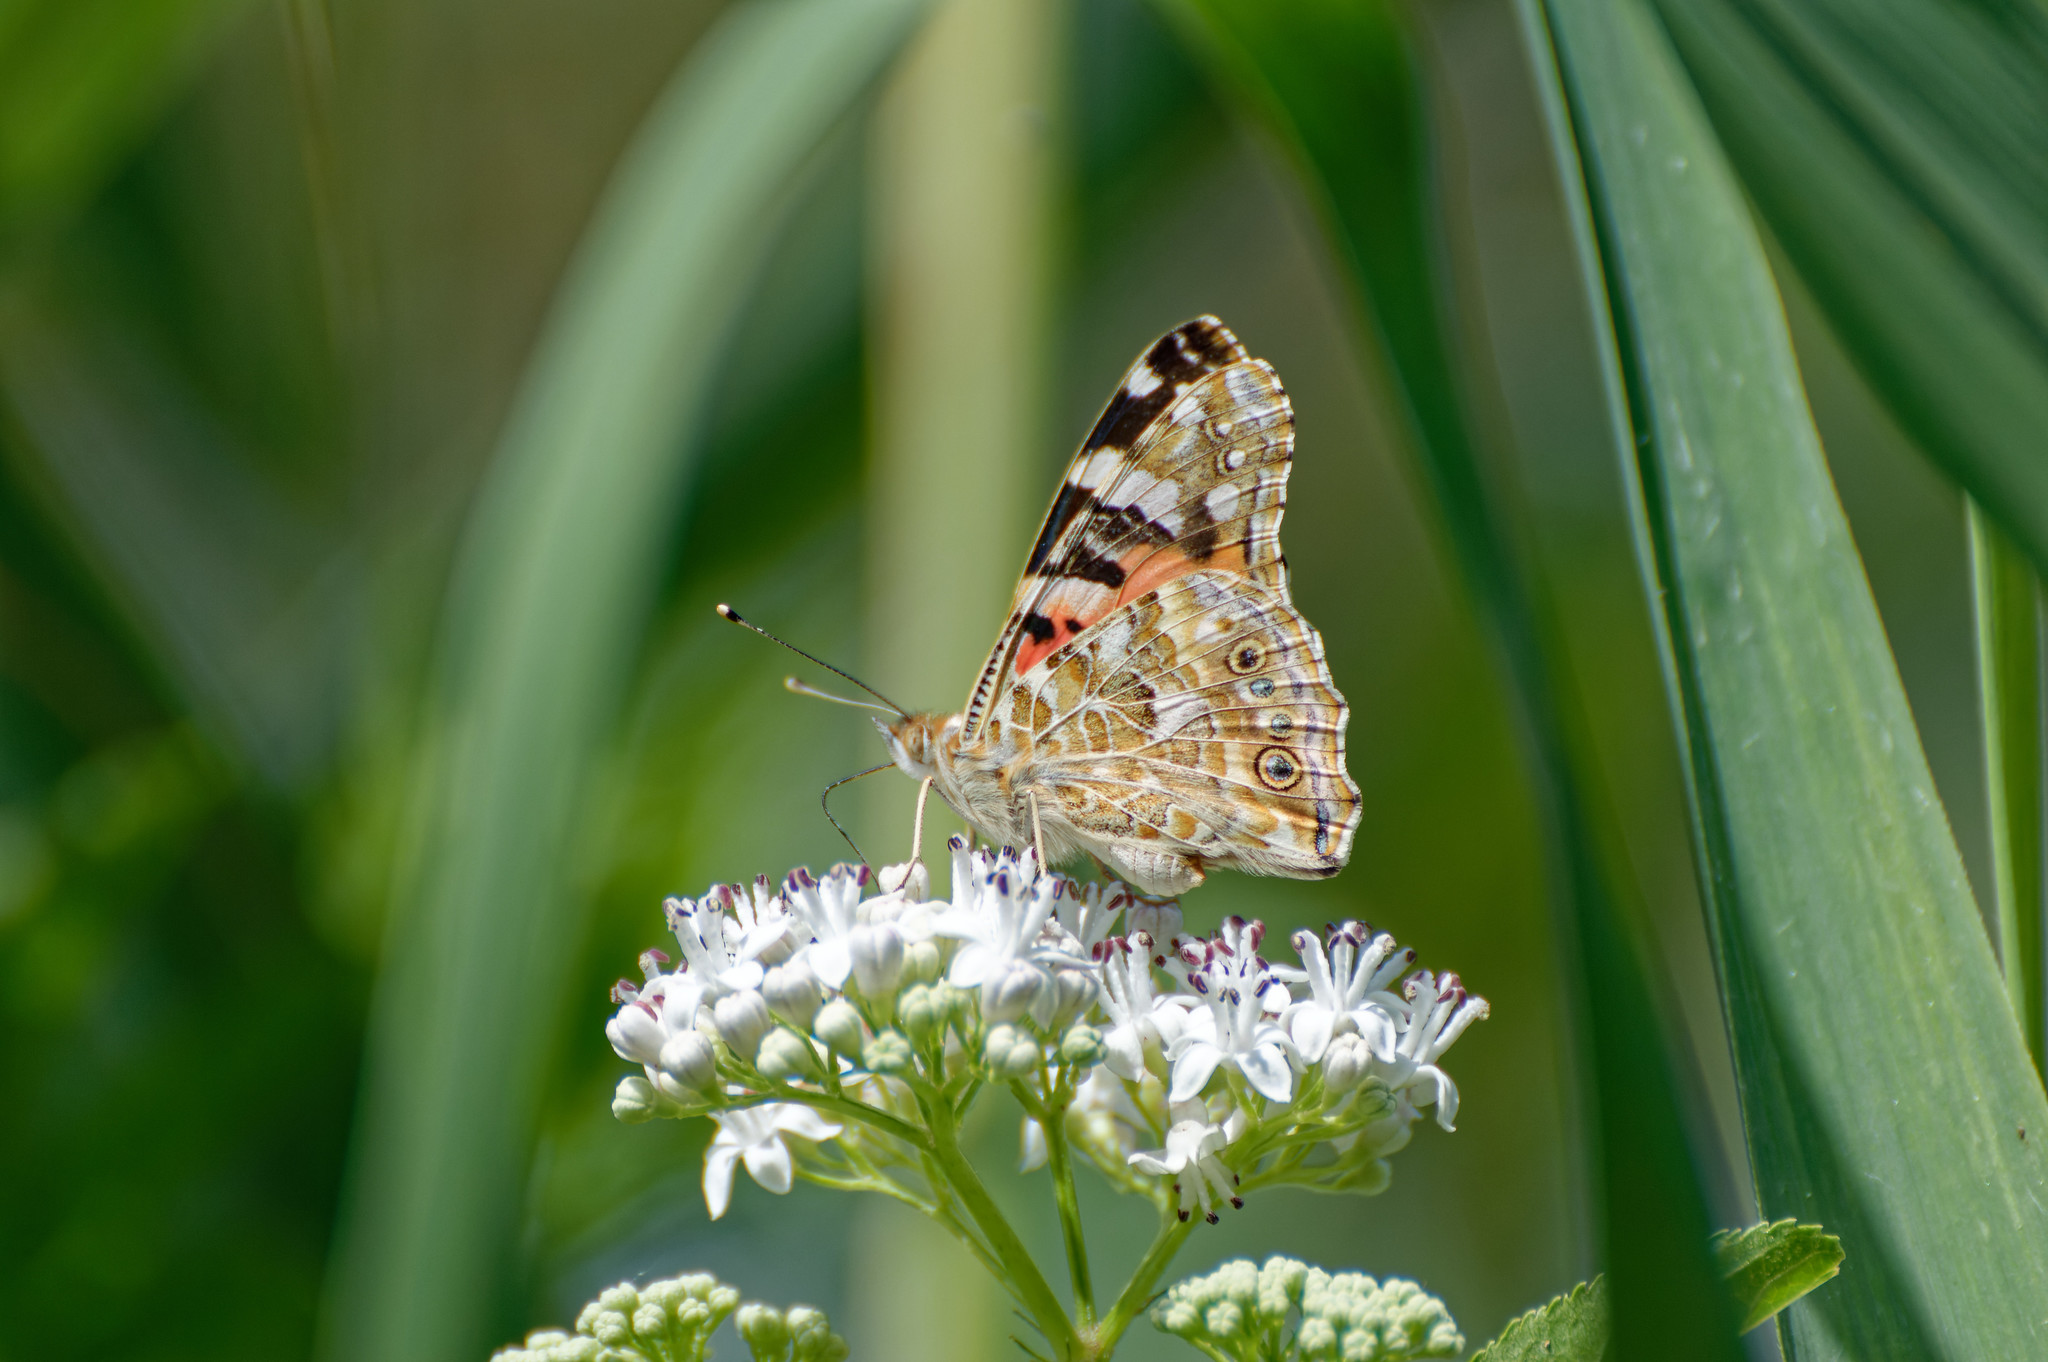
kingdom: Animalia
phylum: Arthropoda
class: Insecta
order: Lepidoptera
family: Nymphalidae
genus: Vanessa
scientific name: Vanessa cardui
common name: Painted lady
